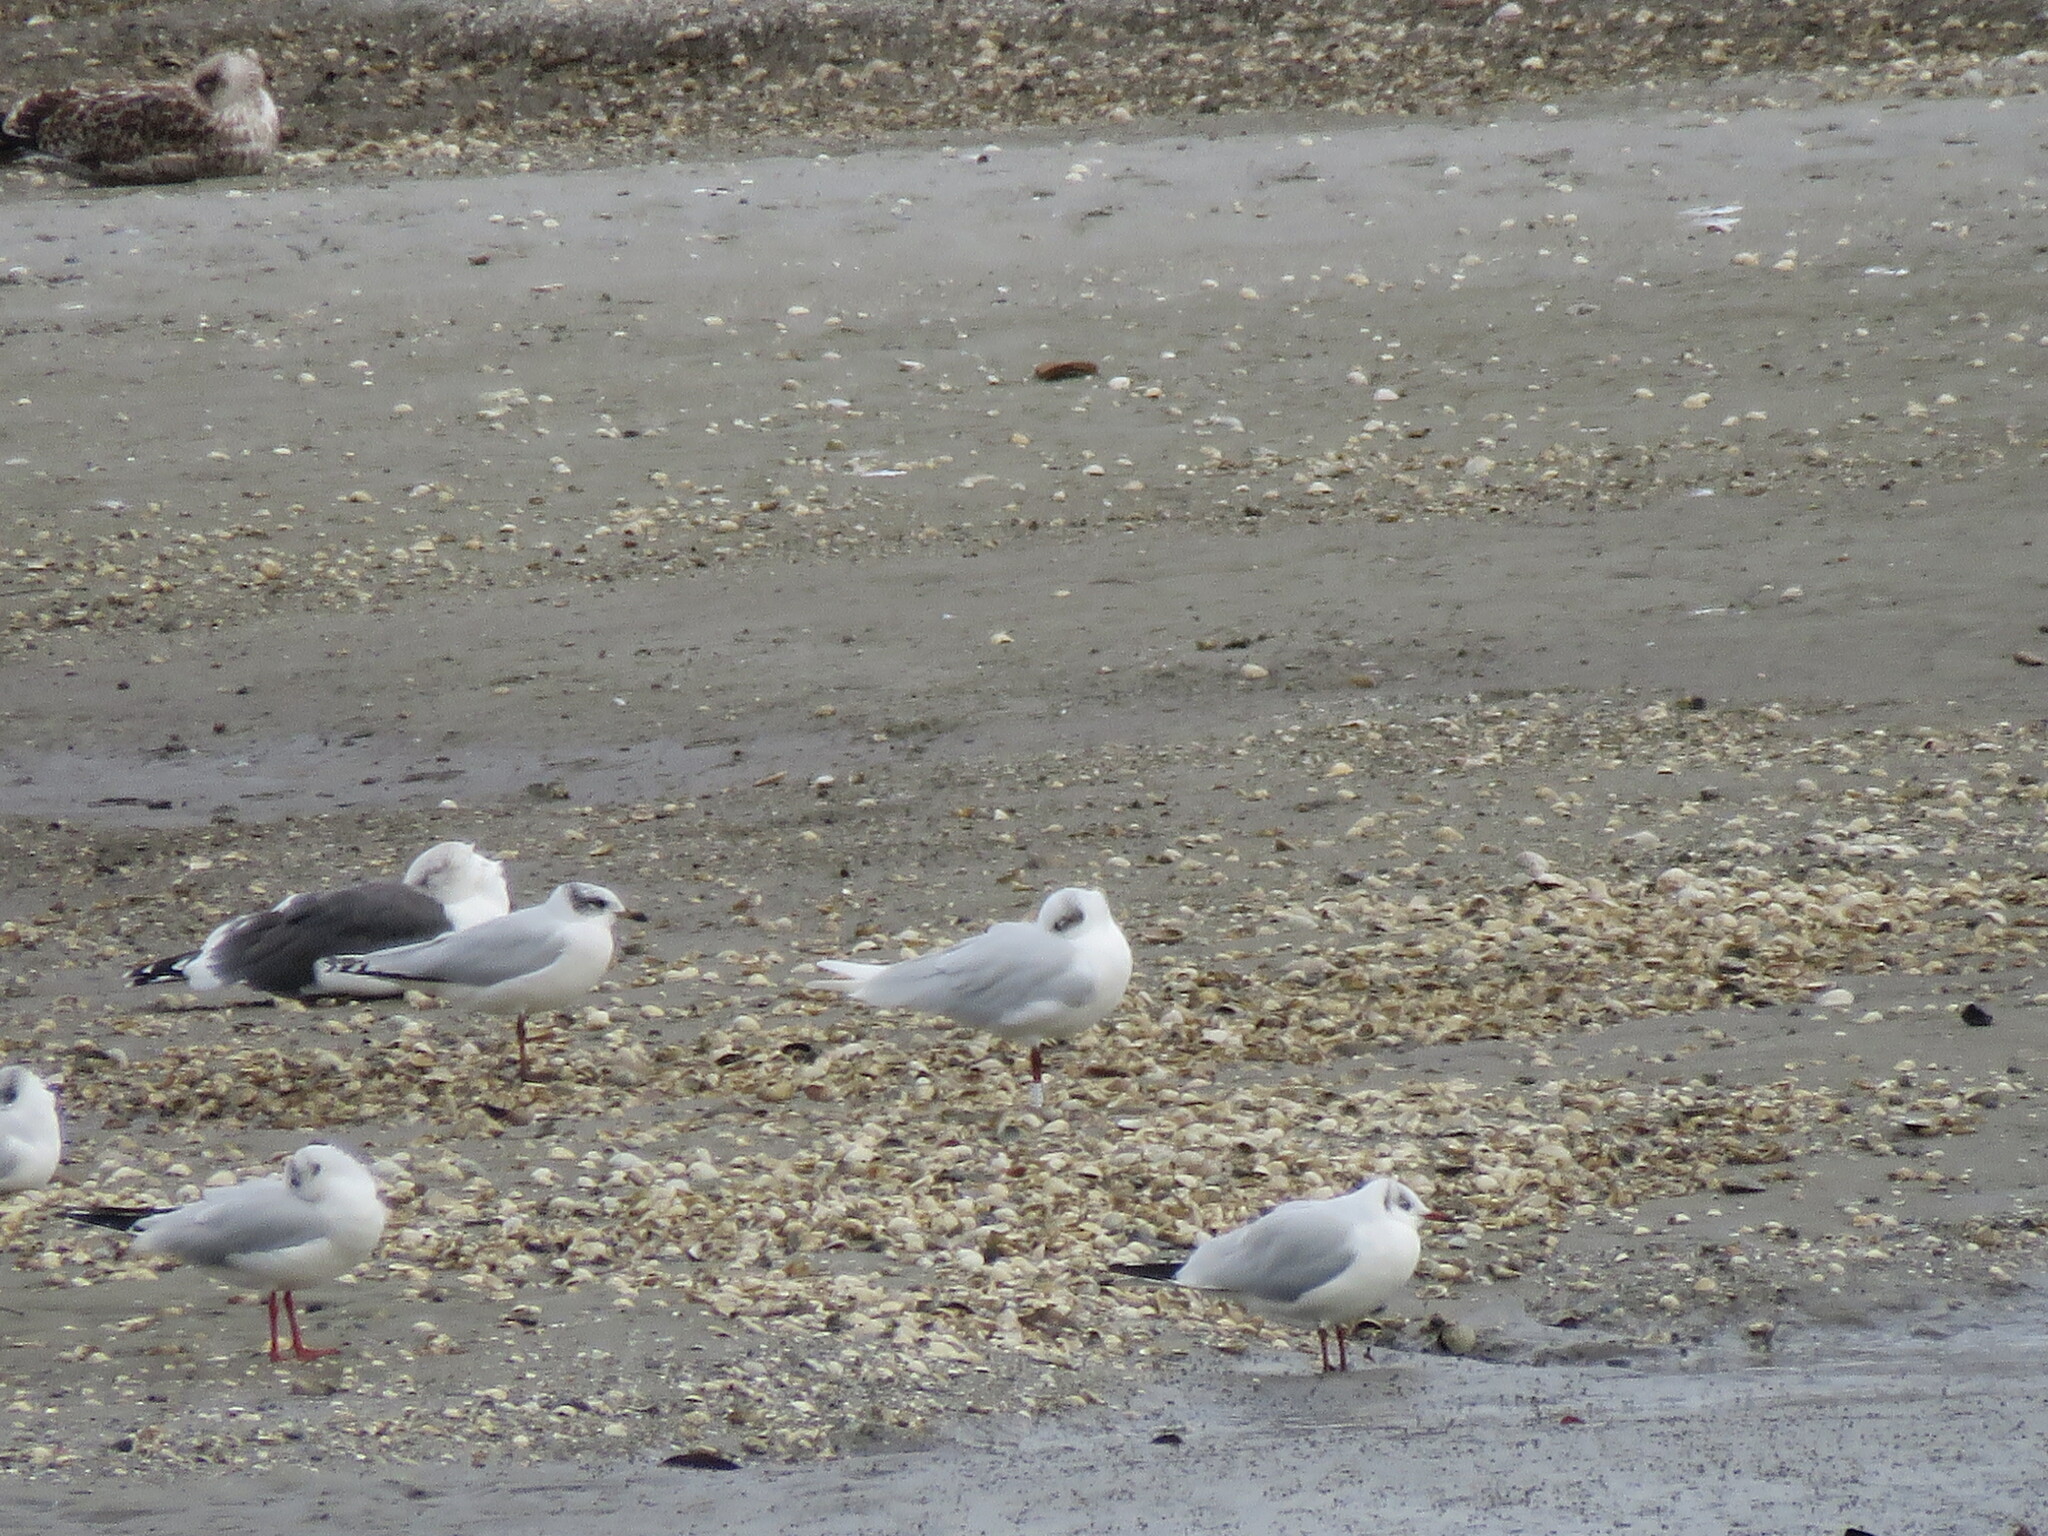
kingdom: Animalia
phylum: Chordata
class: Aves
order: Charadriiformes
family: Laridae
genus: Ichthyaetus
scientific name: Ichthyaetus melanocephalus
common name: Mediterranean gull
